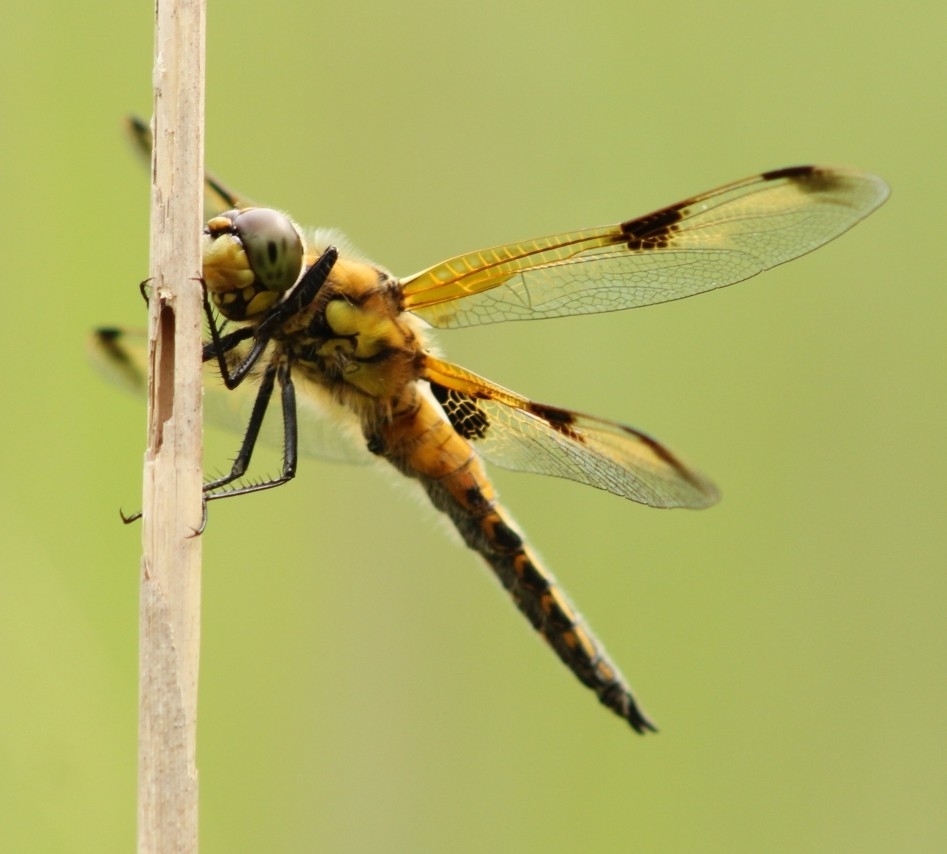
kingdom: Animalia
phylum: Arthropoda
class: Insecta
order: Odonata
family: Libellulidae
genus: Libellula
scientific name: Libellula quadrimaculata
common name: Four-spotted chaser
